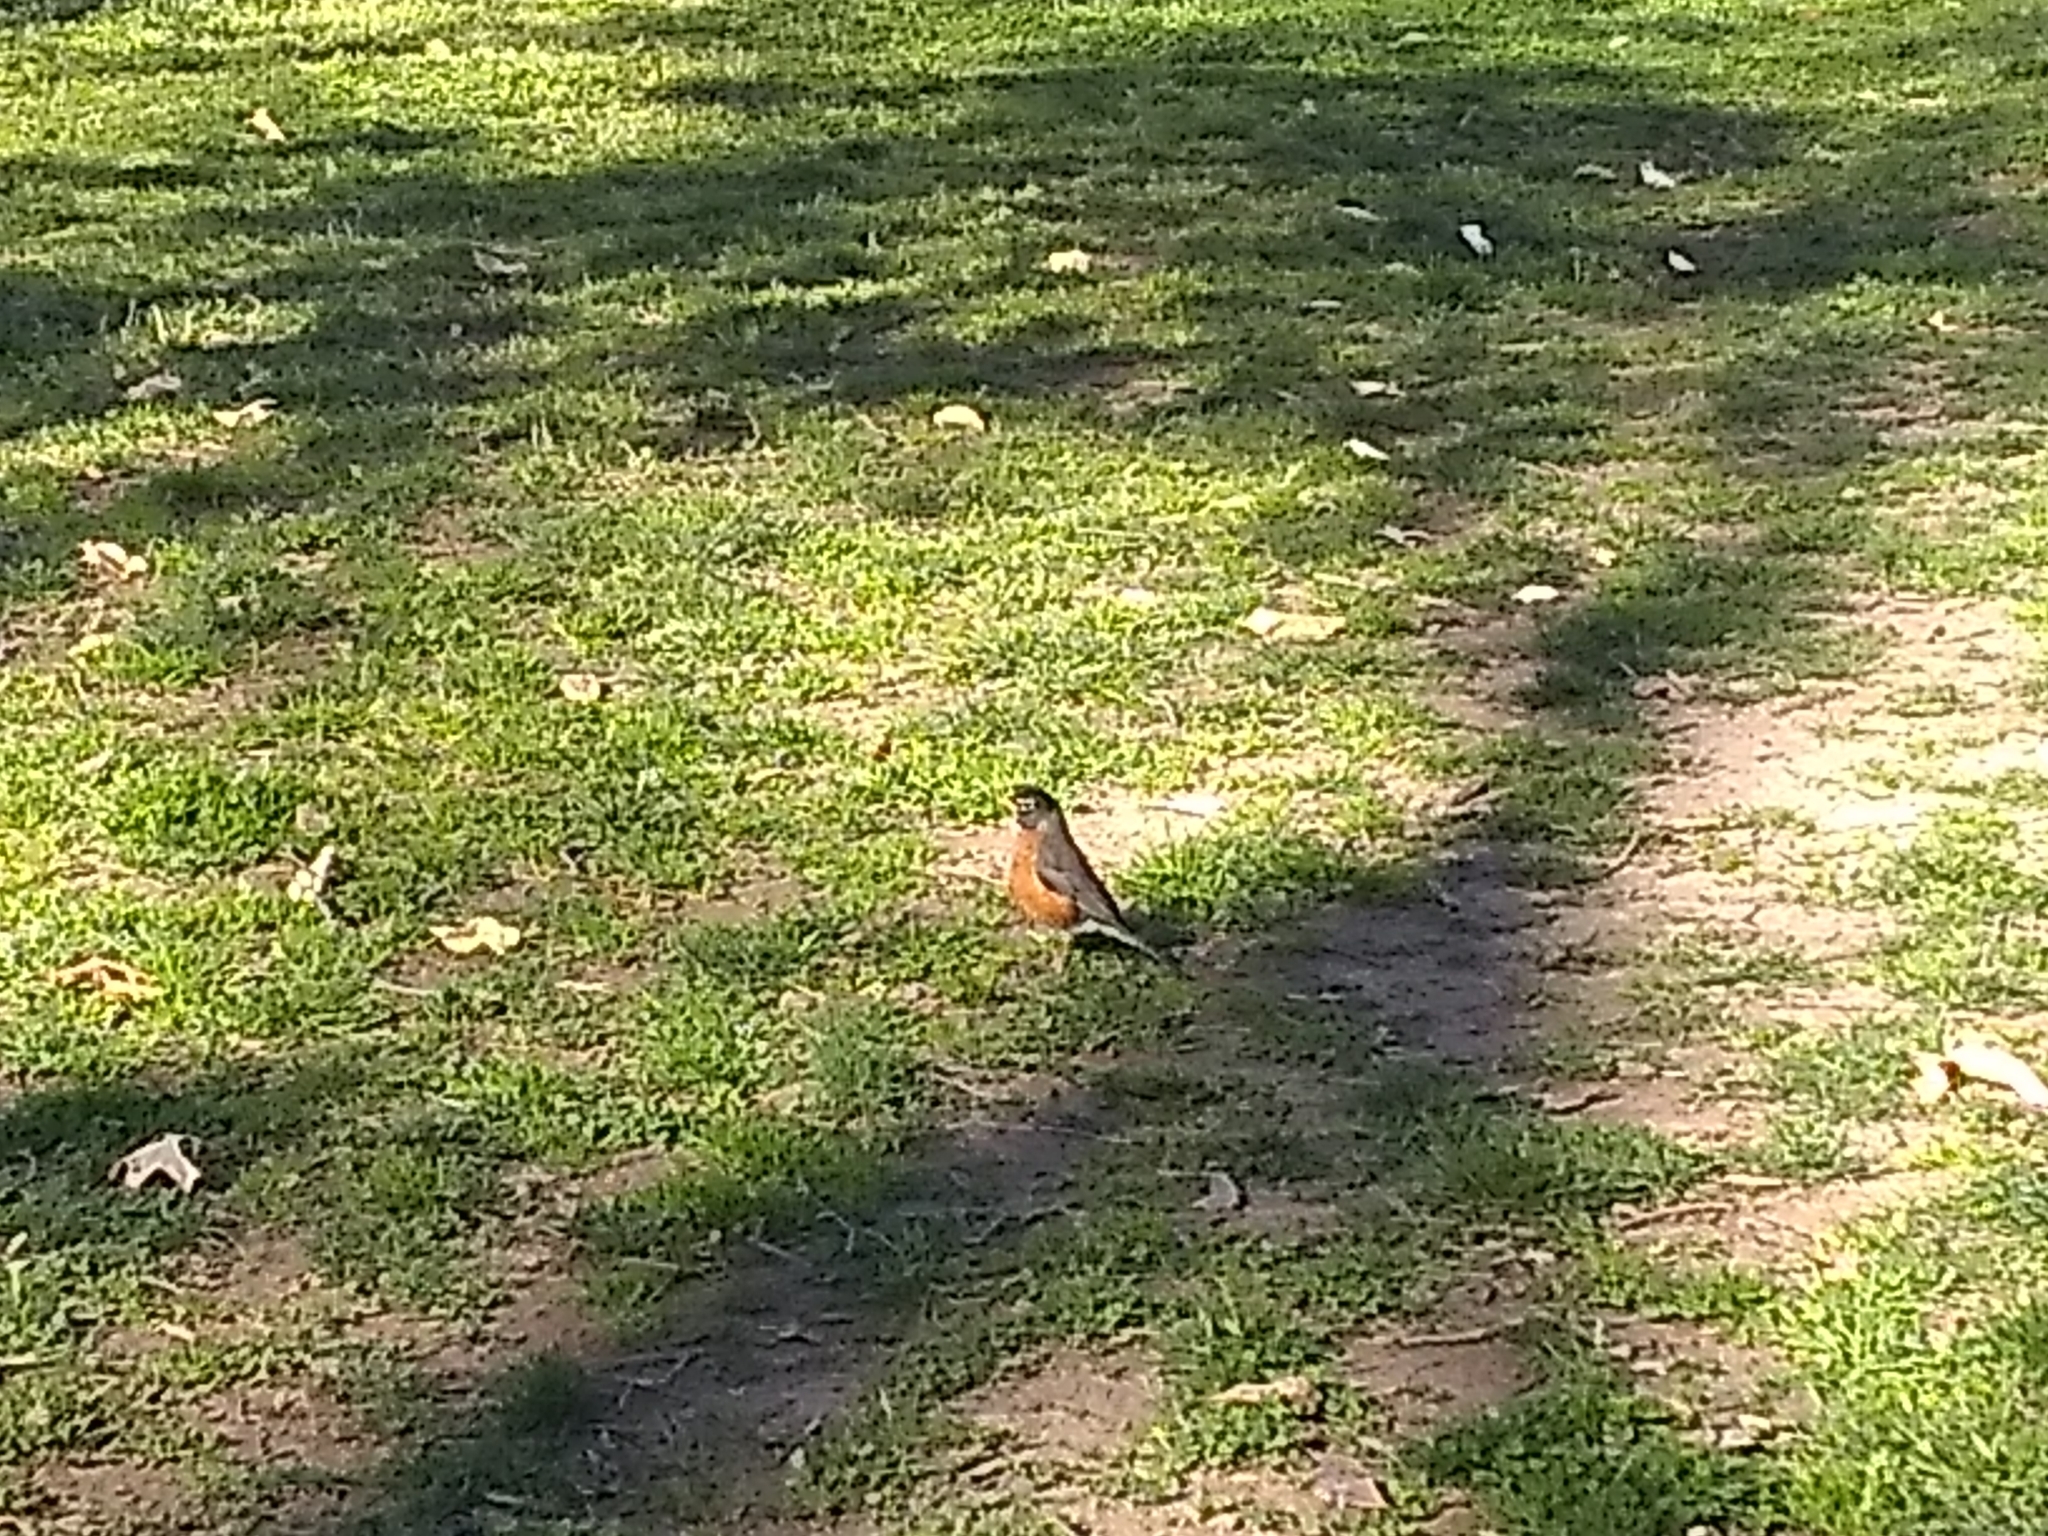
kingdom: Animalia
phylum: Chordata
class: Aves
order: Passeriformes
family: Turdidae
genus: Turdus
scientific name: Turdus migratorius
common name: American robin
